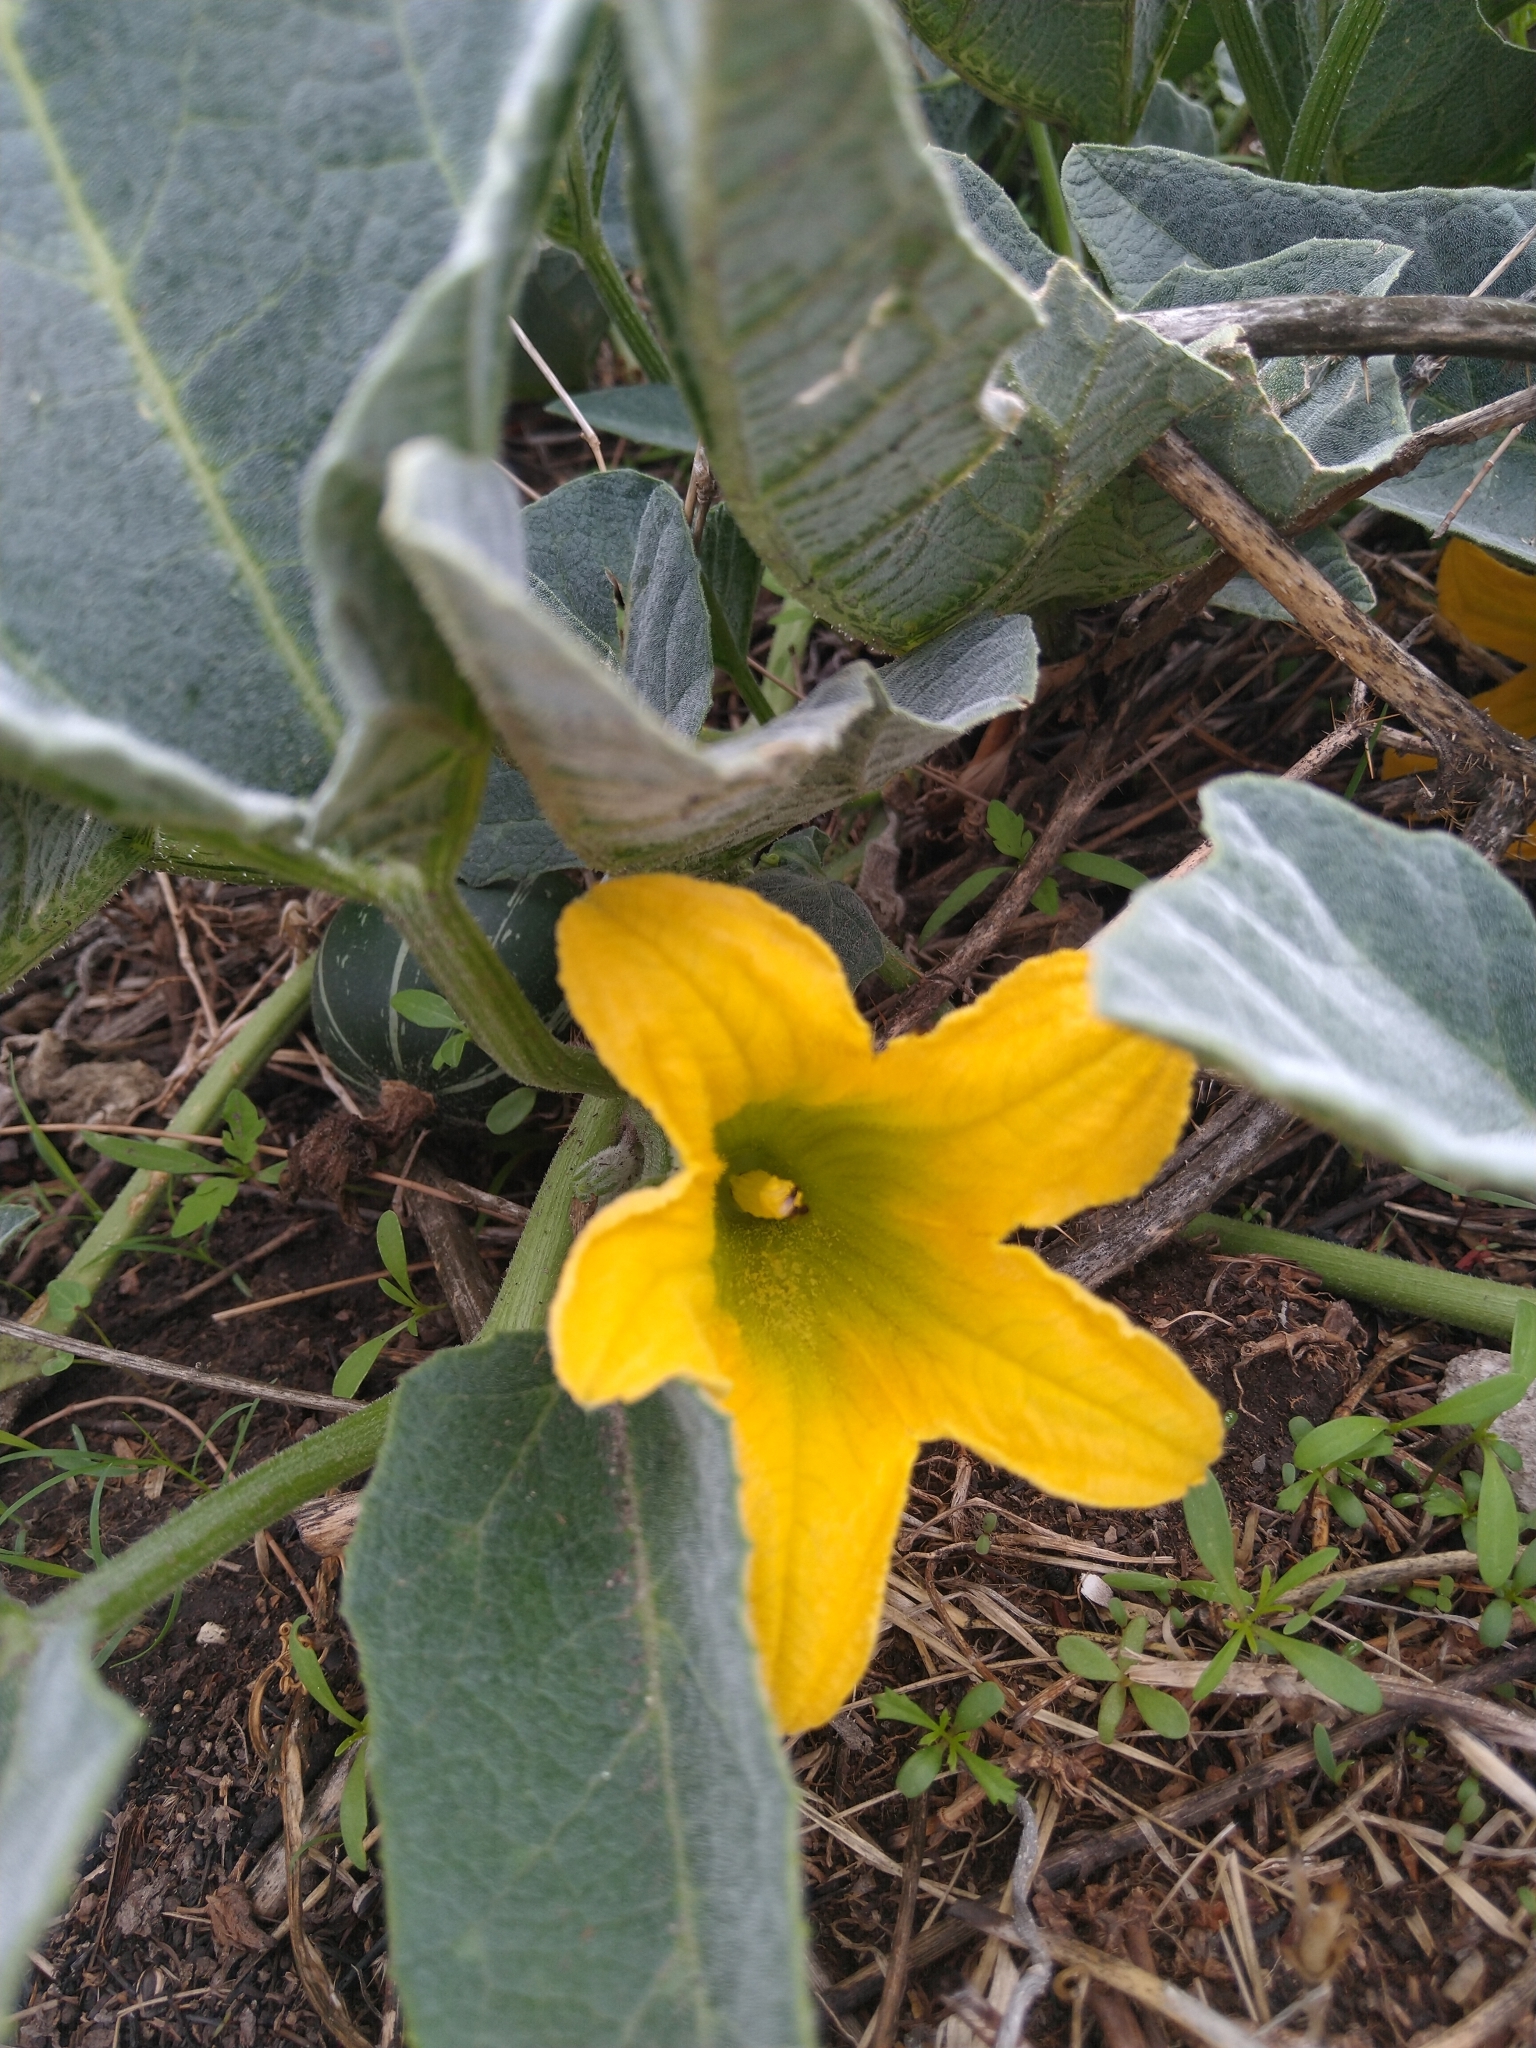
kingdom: Plantae
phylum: Tracheophyta
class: Magnoliopsida
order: Cucurbitales
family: Cucurbitaceae
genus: Cucurbita
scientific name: Cucurbita foetidissima
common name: Buffalo gourd
